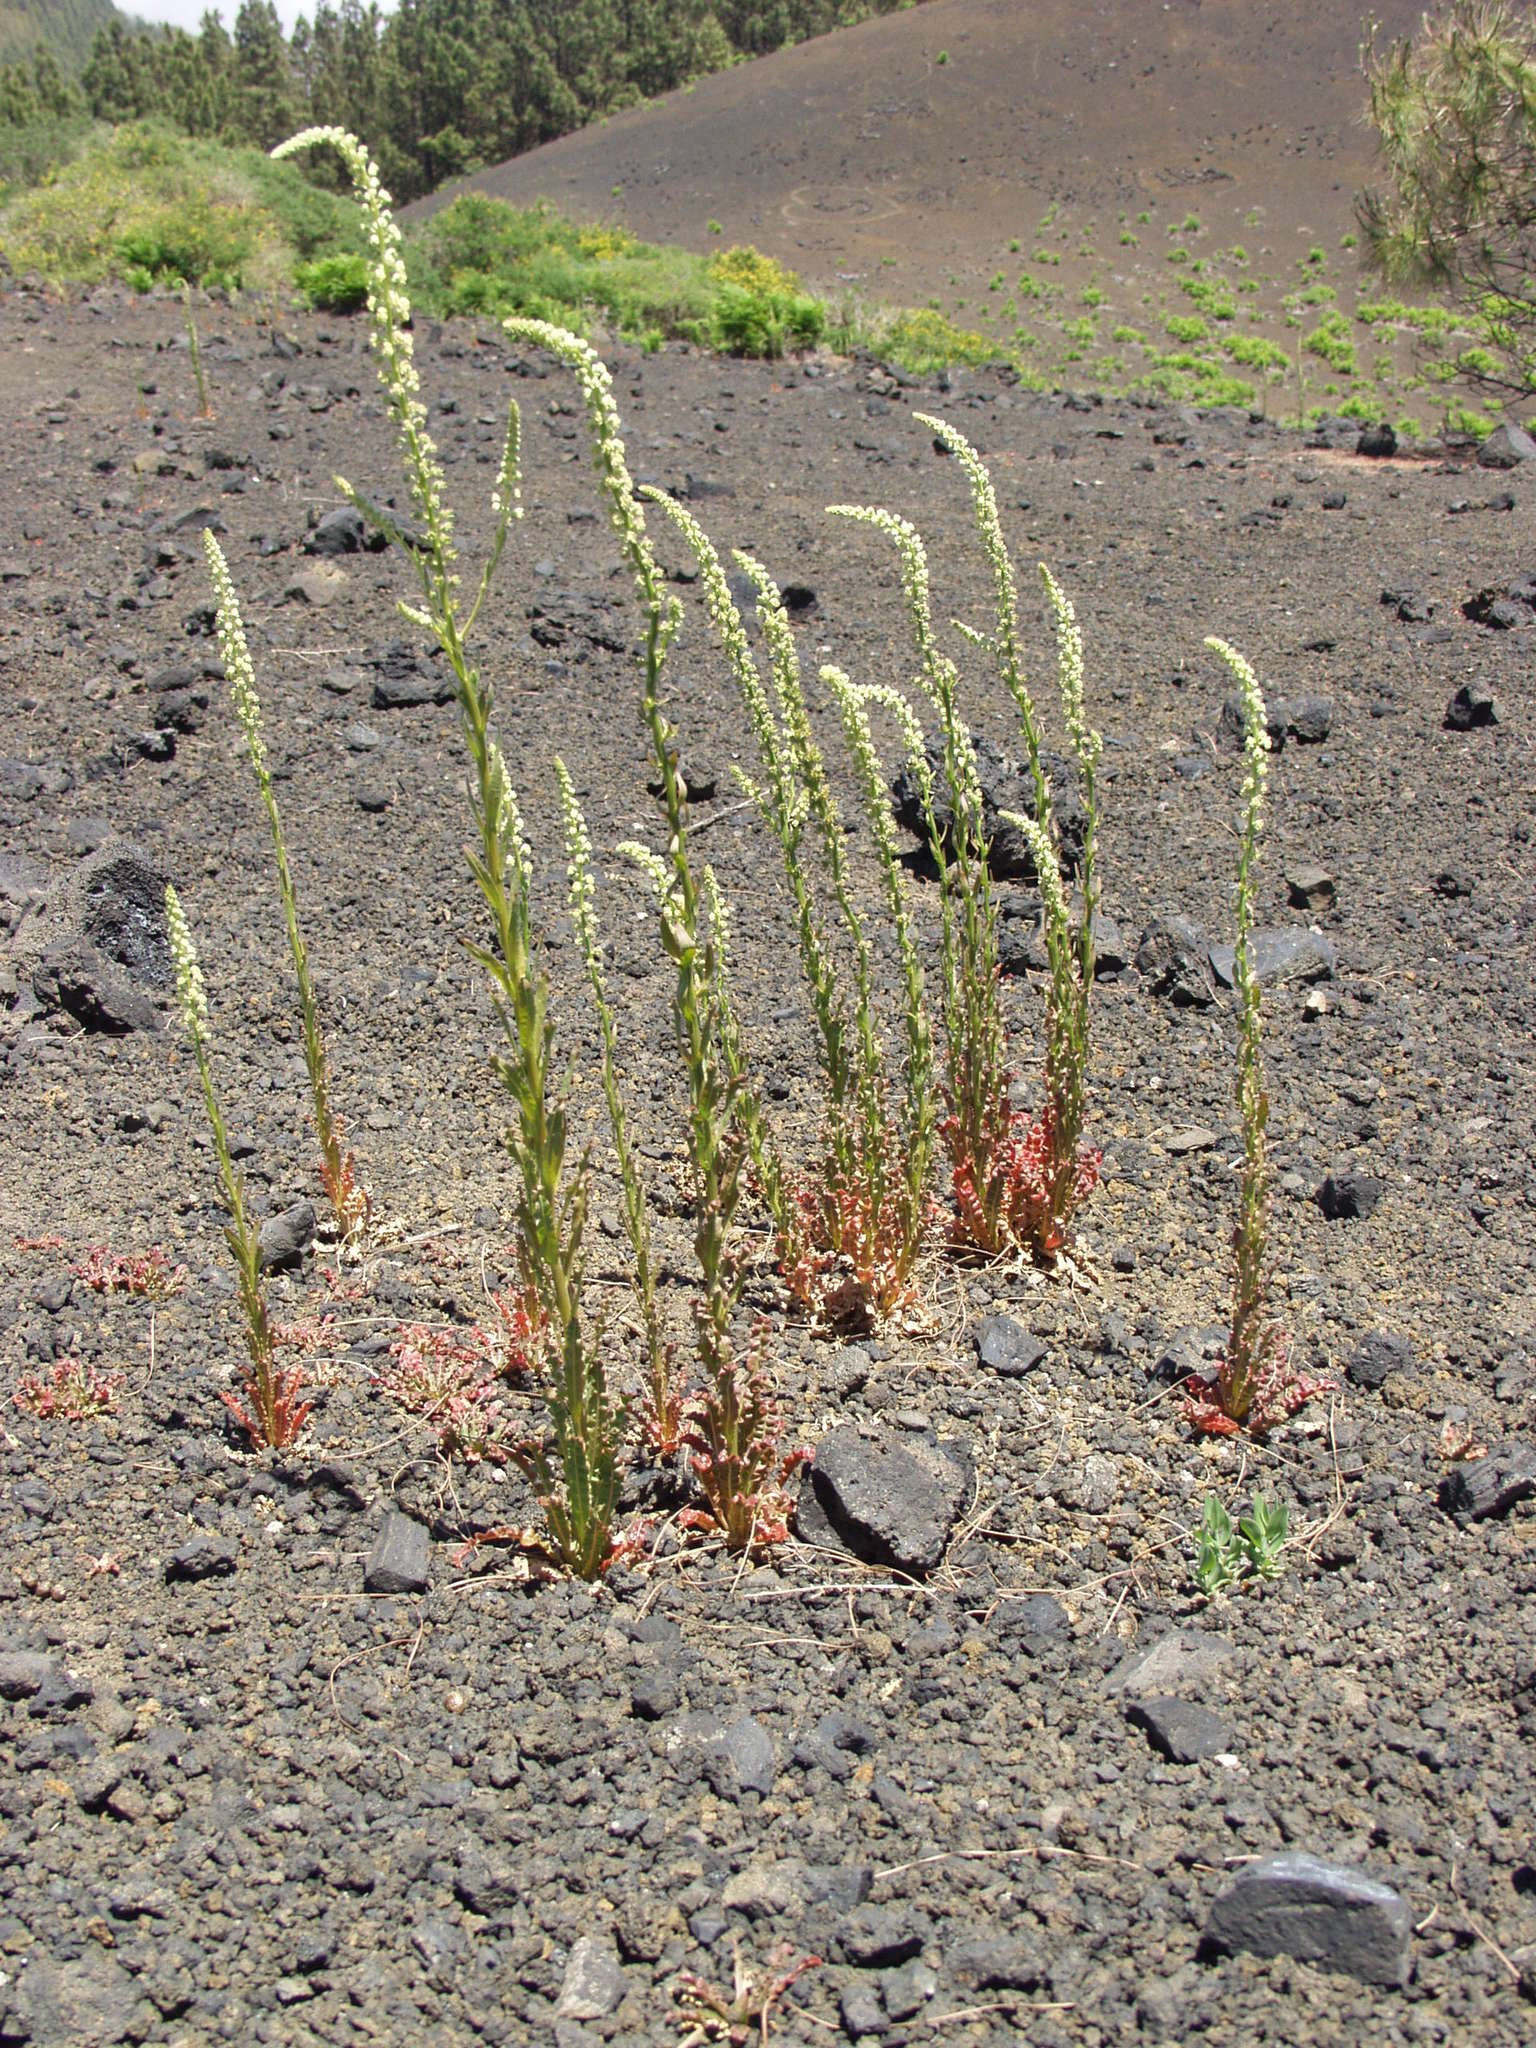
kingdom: Plantae
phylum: Tracheophyta
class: Magnoliopsida
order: Brassicales
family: Resedaceae
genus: Reseda
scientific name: Reseda luteola
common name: Weld
